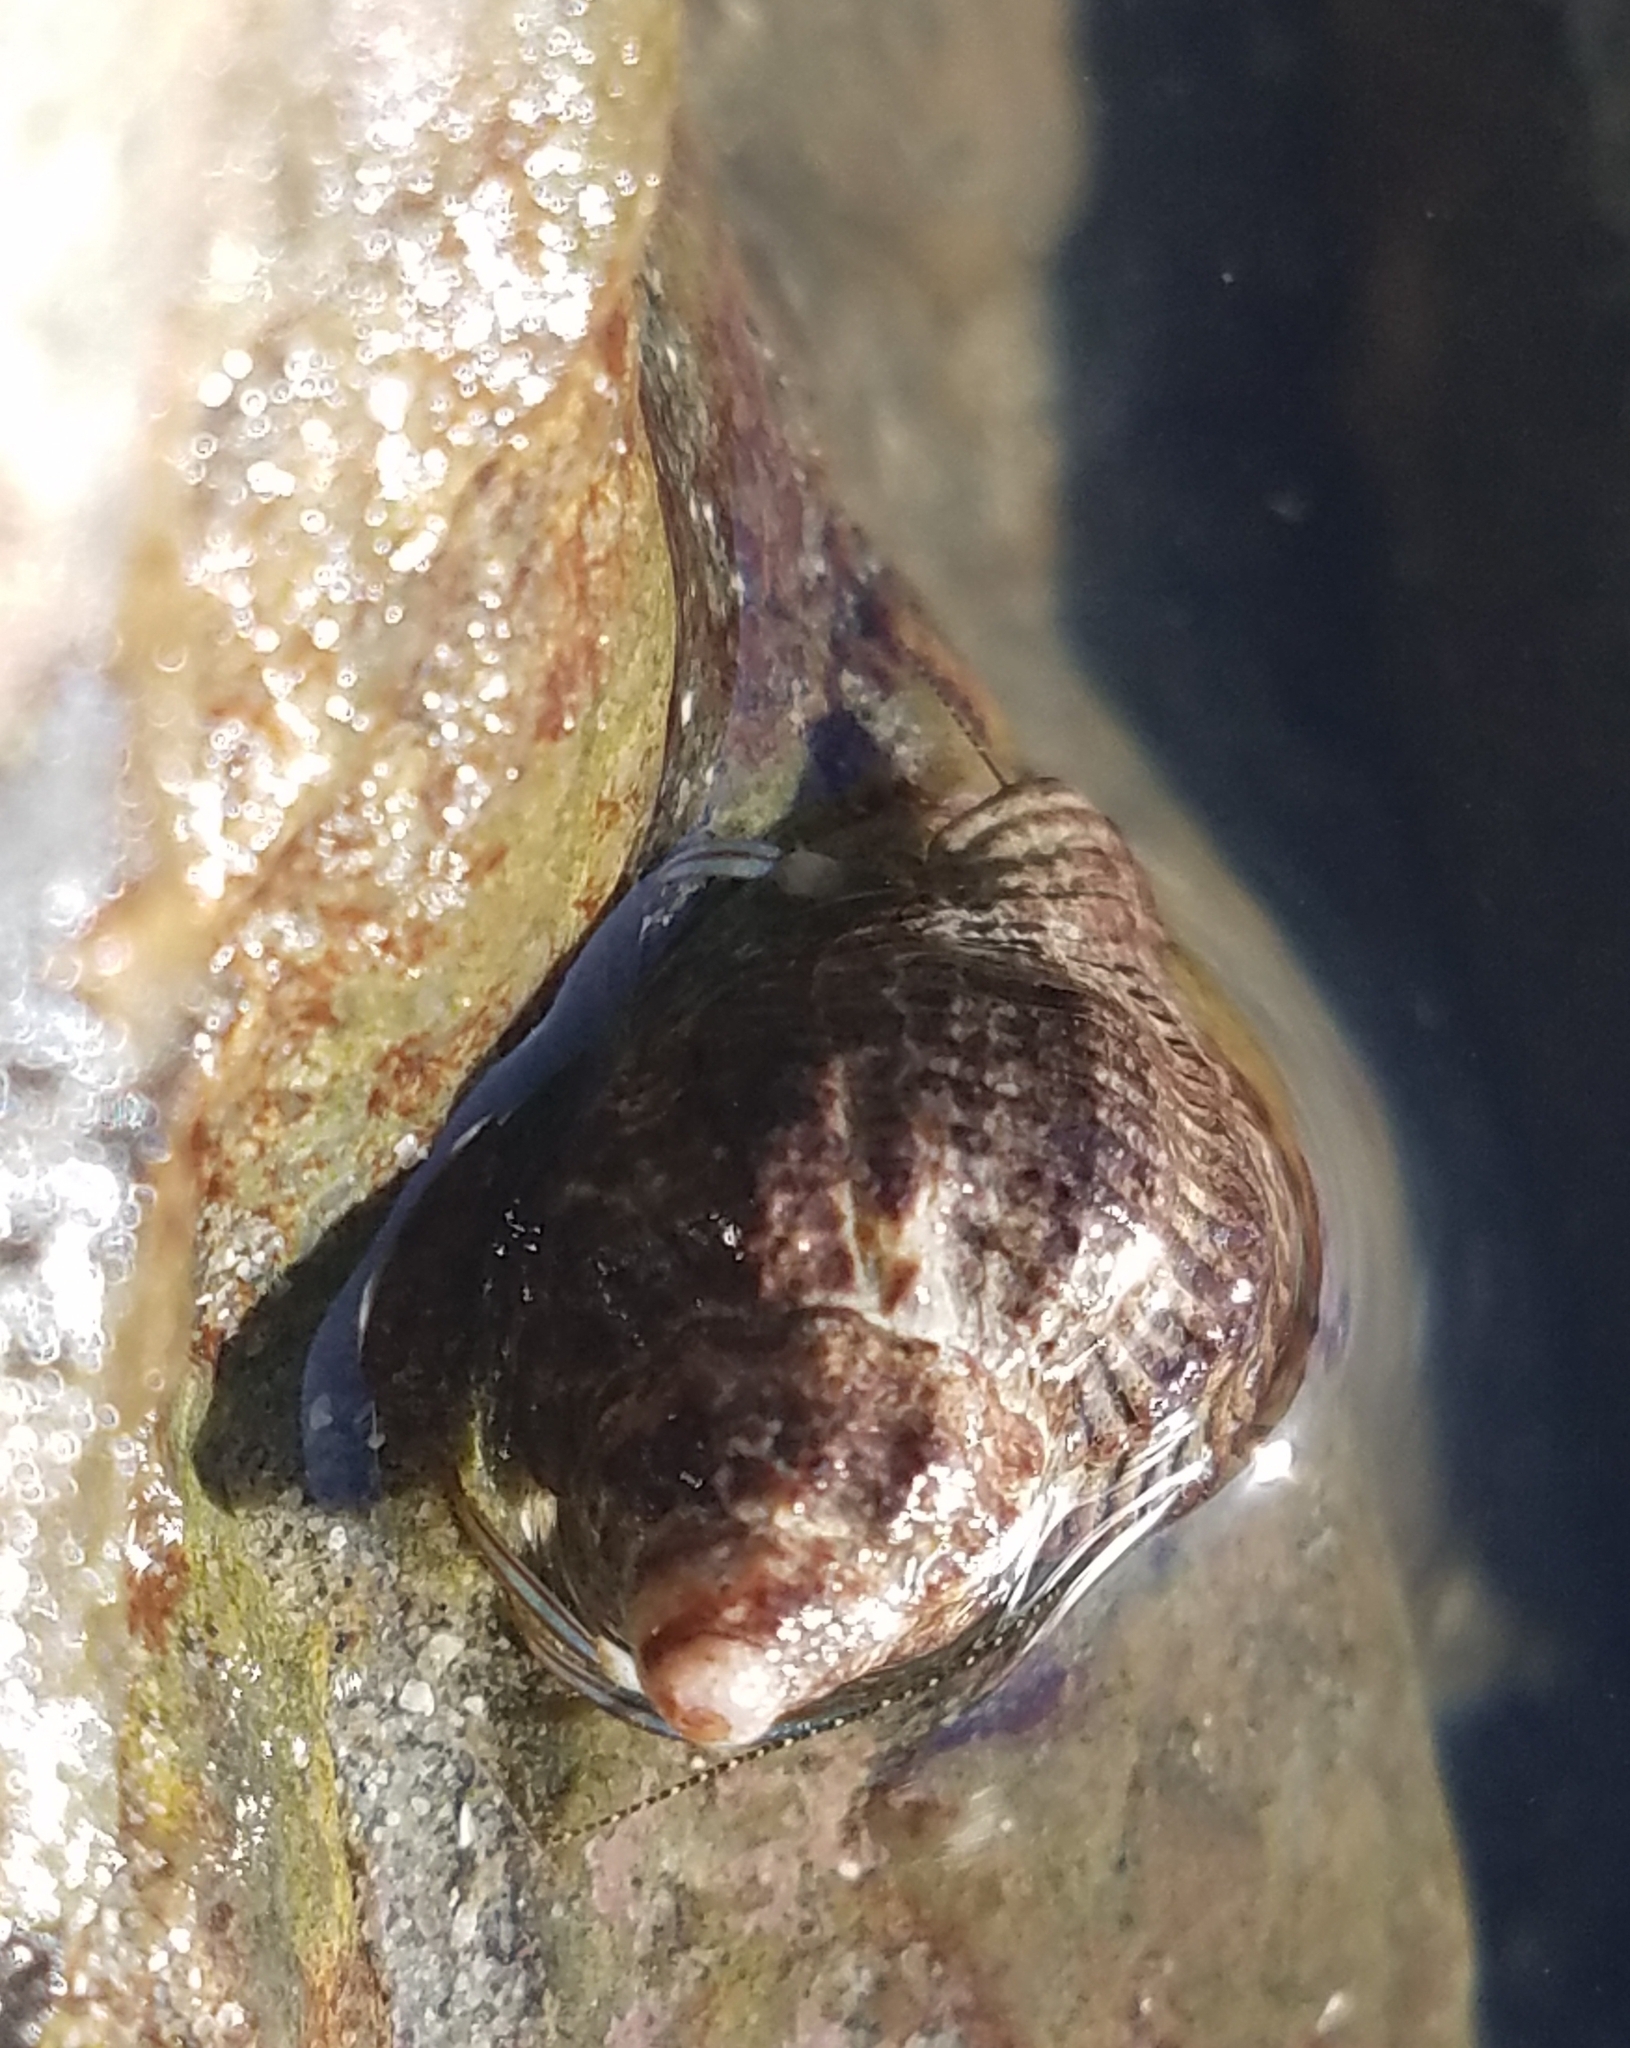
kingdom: Animalia
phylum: Arthropoda
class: Malacostraca
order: Decapoda
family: Paguridae
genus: Pagurus
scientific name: Pagurus venturensis
